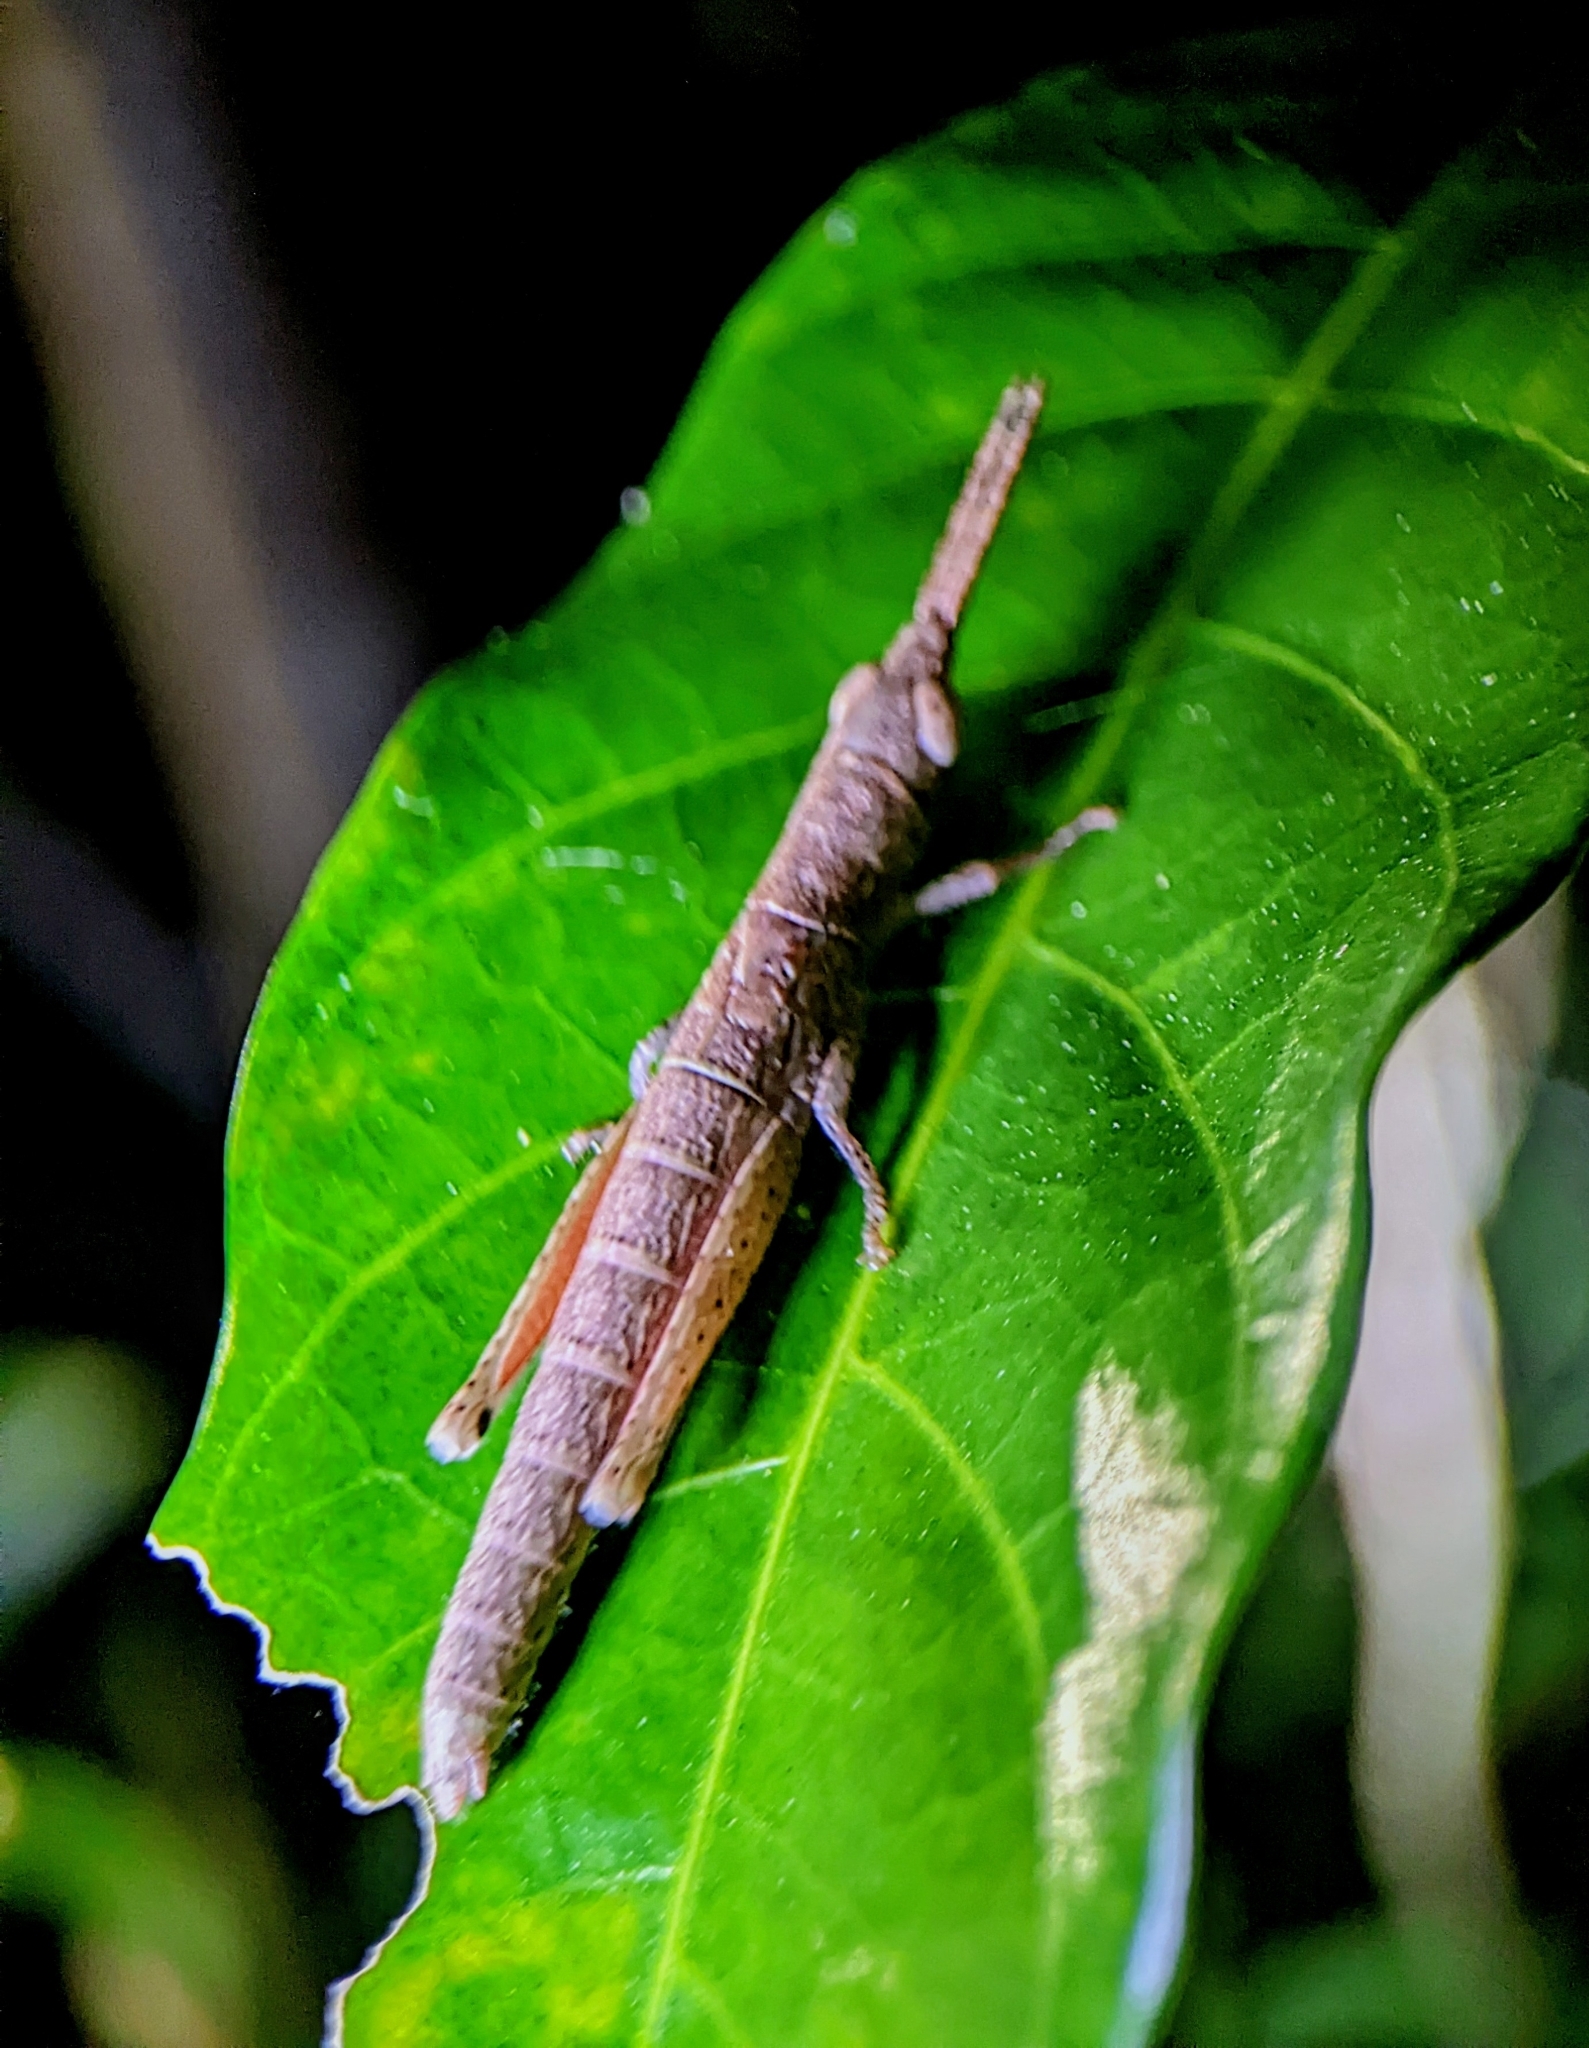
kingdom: Animalia
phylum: Arthropoda
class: Insecta
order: Orthoptera
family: Pyrgomorphidae
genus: Mitricephala
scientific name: Mitricephala milleri
